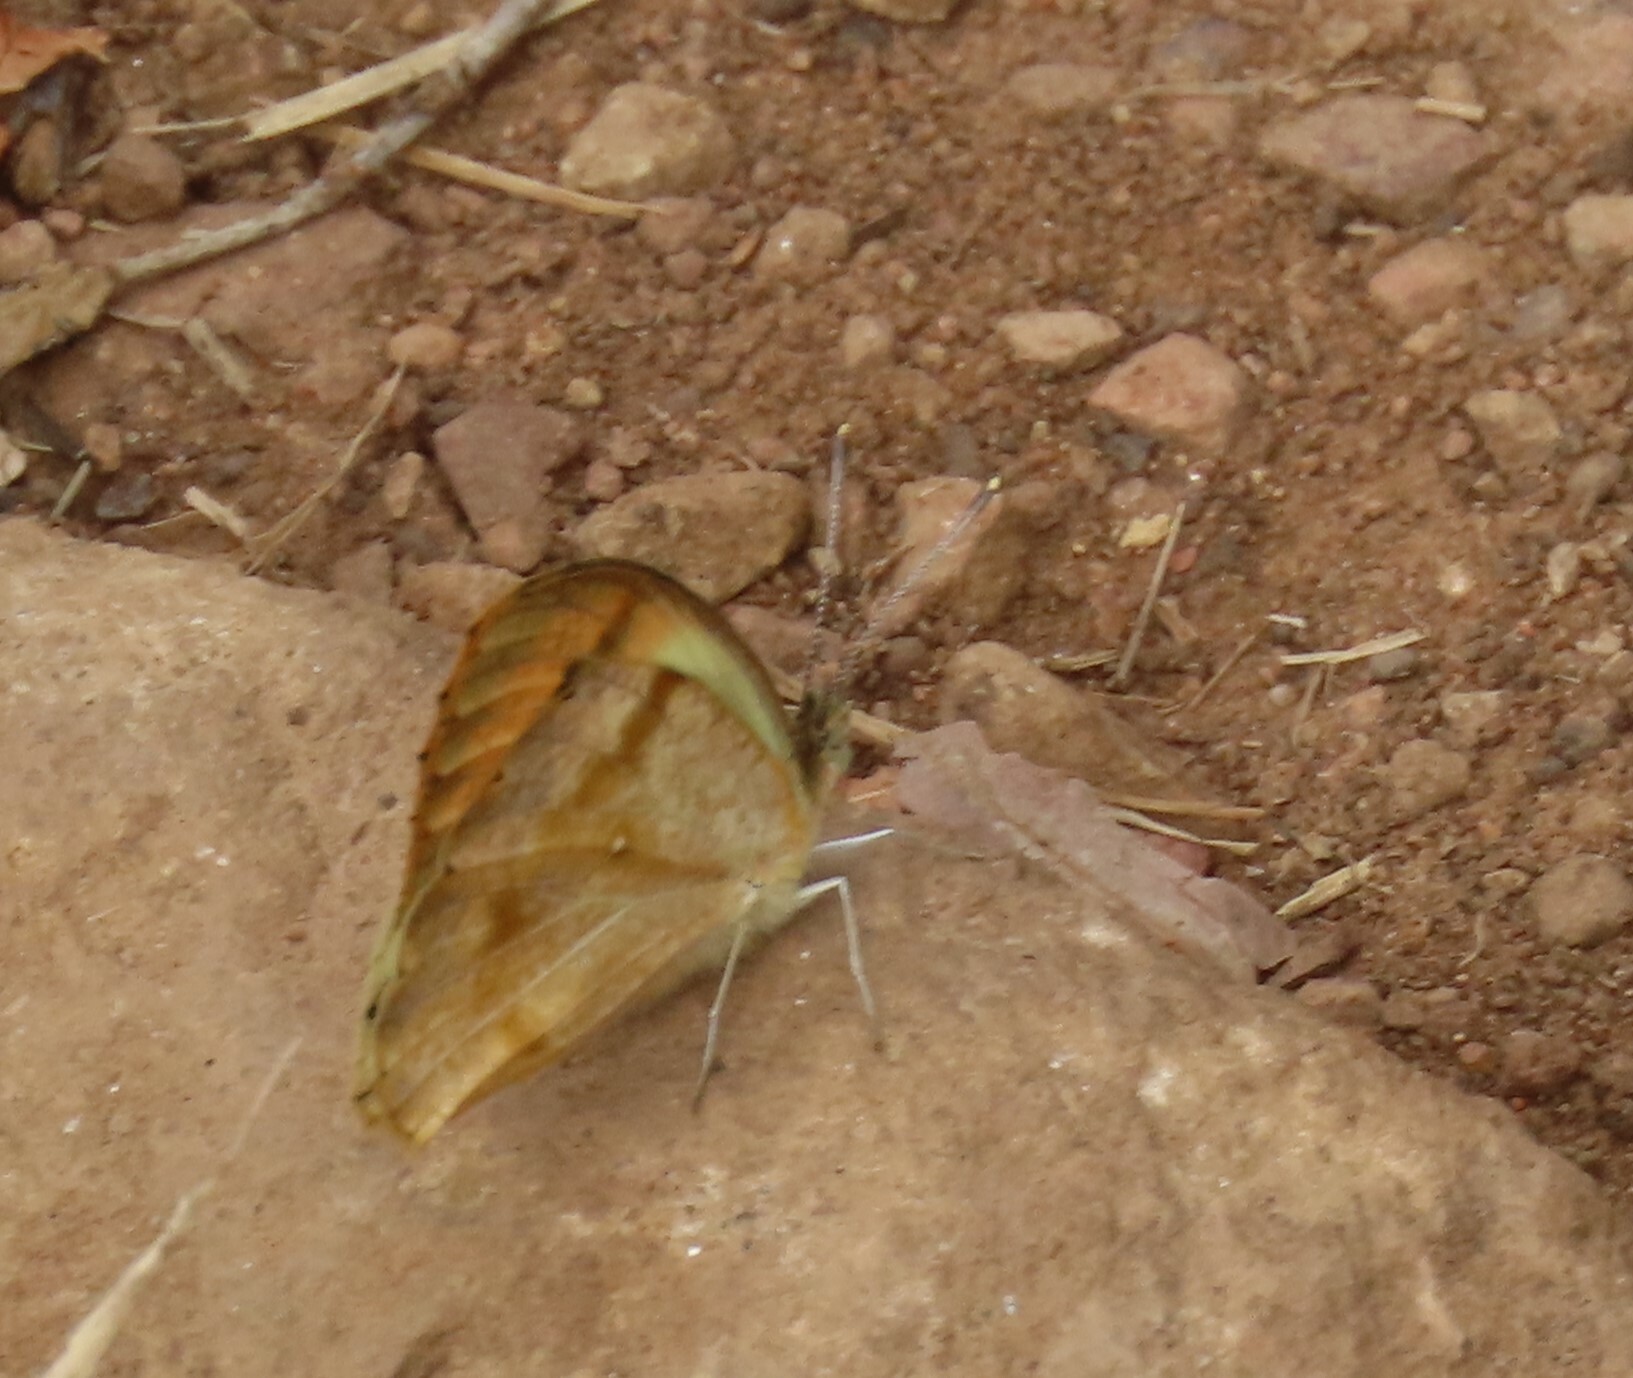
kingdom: Animalia
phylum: Arthropoda
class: Insecta
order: Lepidoptera
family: Pieridae
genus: Colotis
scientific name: Colotis auxo
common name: Sulphur orange tip
